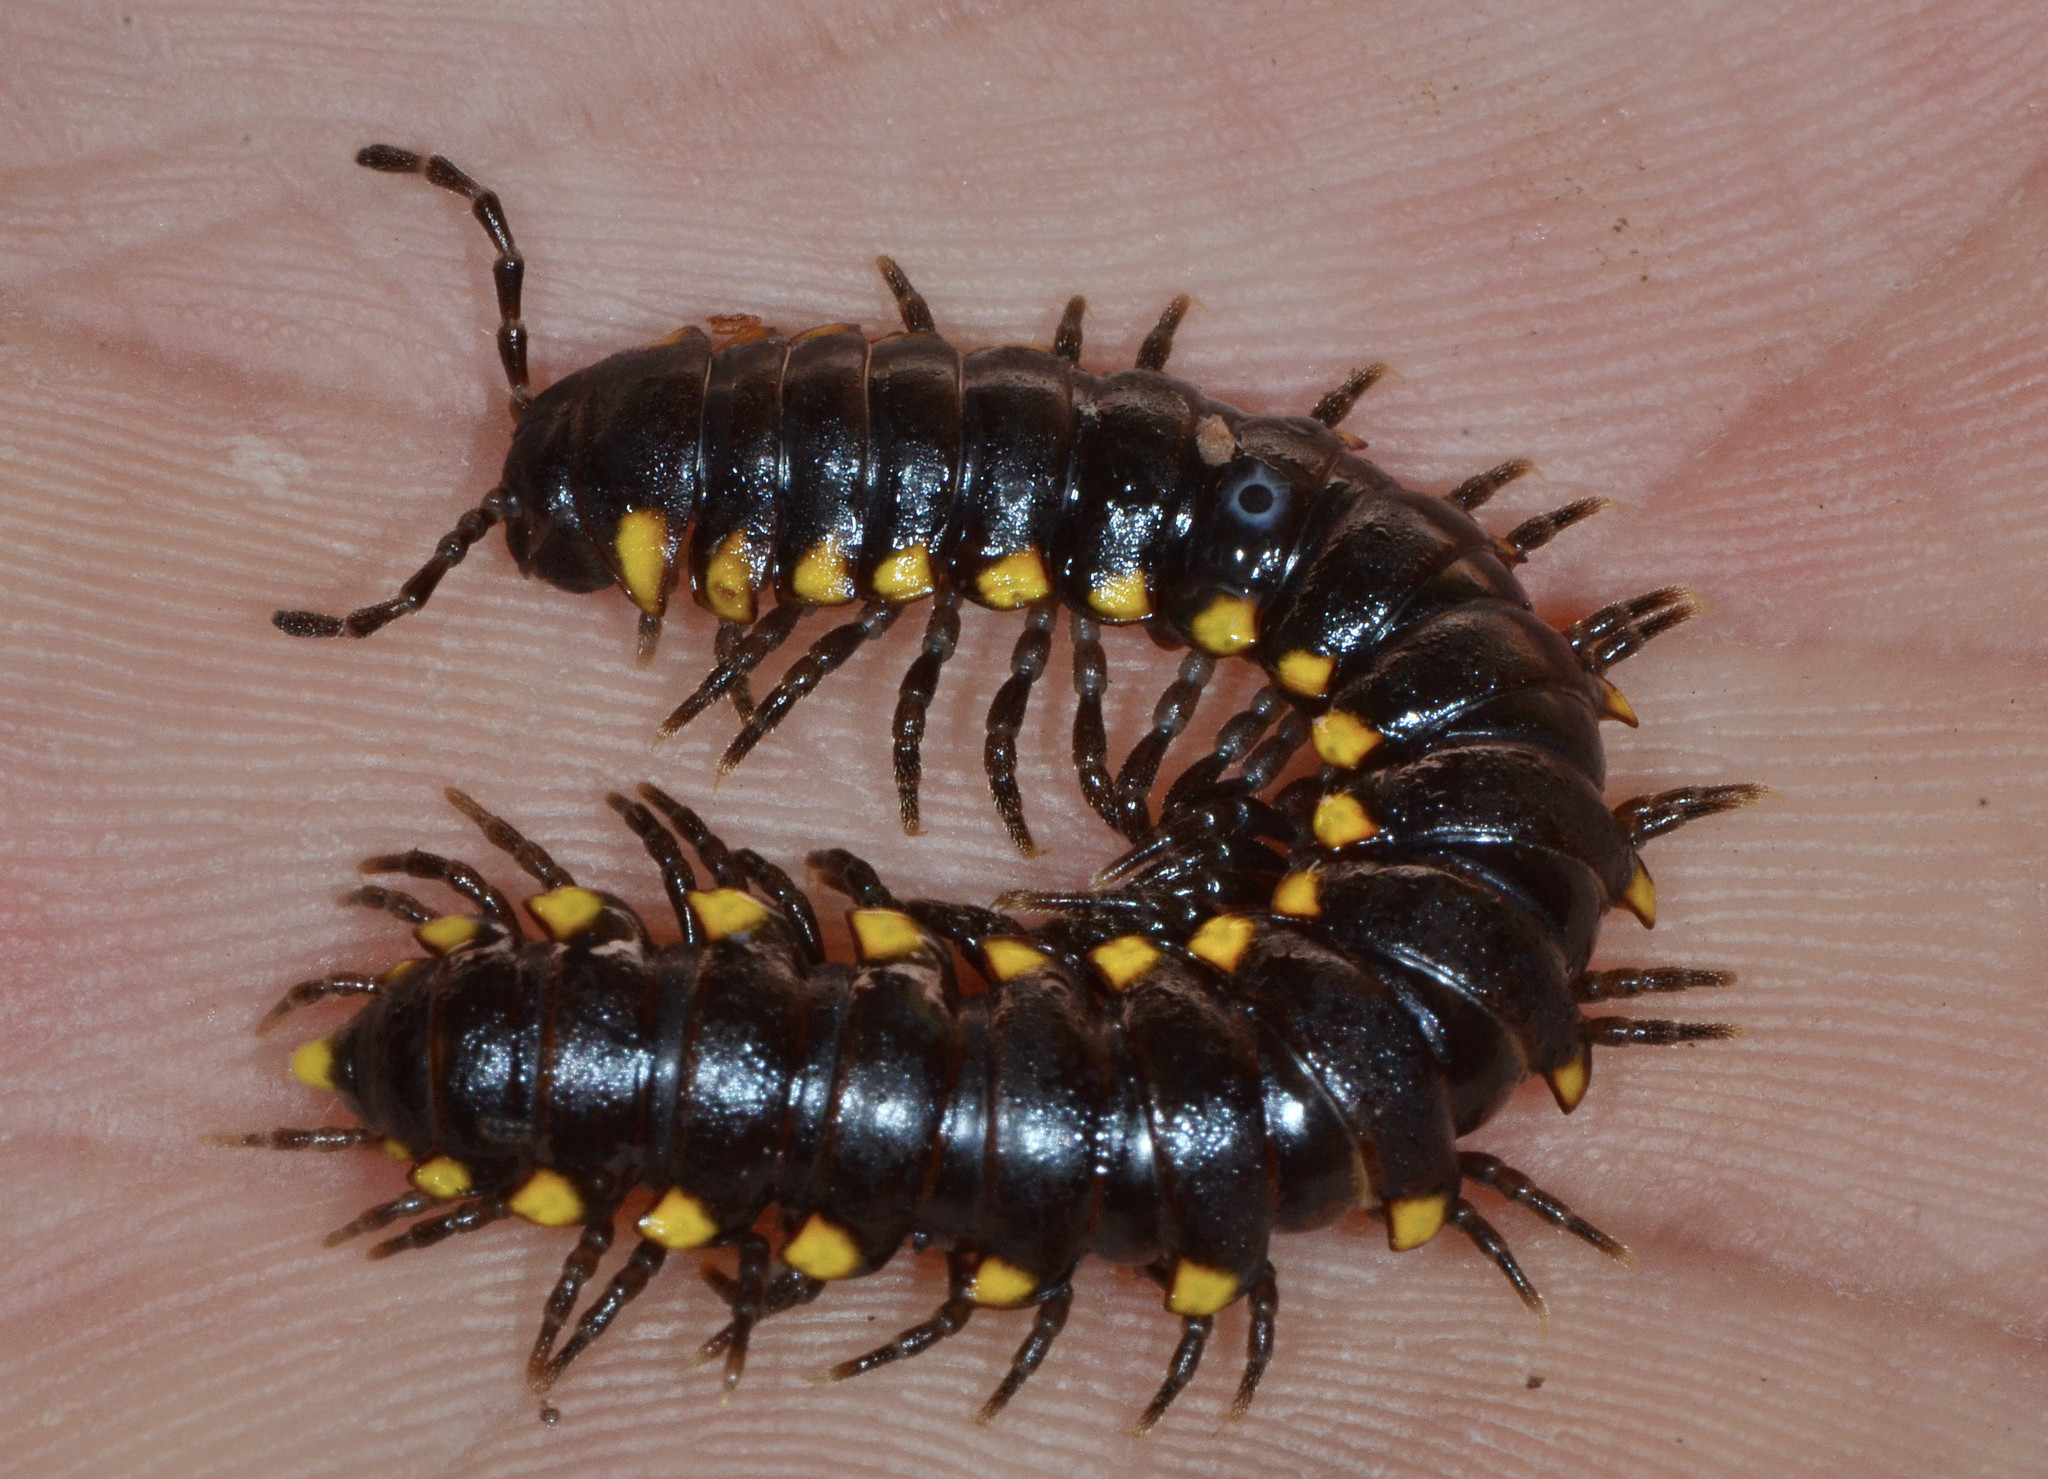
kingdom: Animalia
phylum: Arthropoda
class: Diplopoda
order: Polydesmida
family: Xystodesmidae
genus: Harpaphe
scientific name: Harpaphe lanceolata
